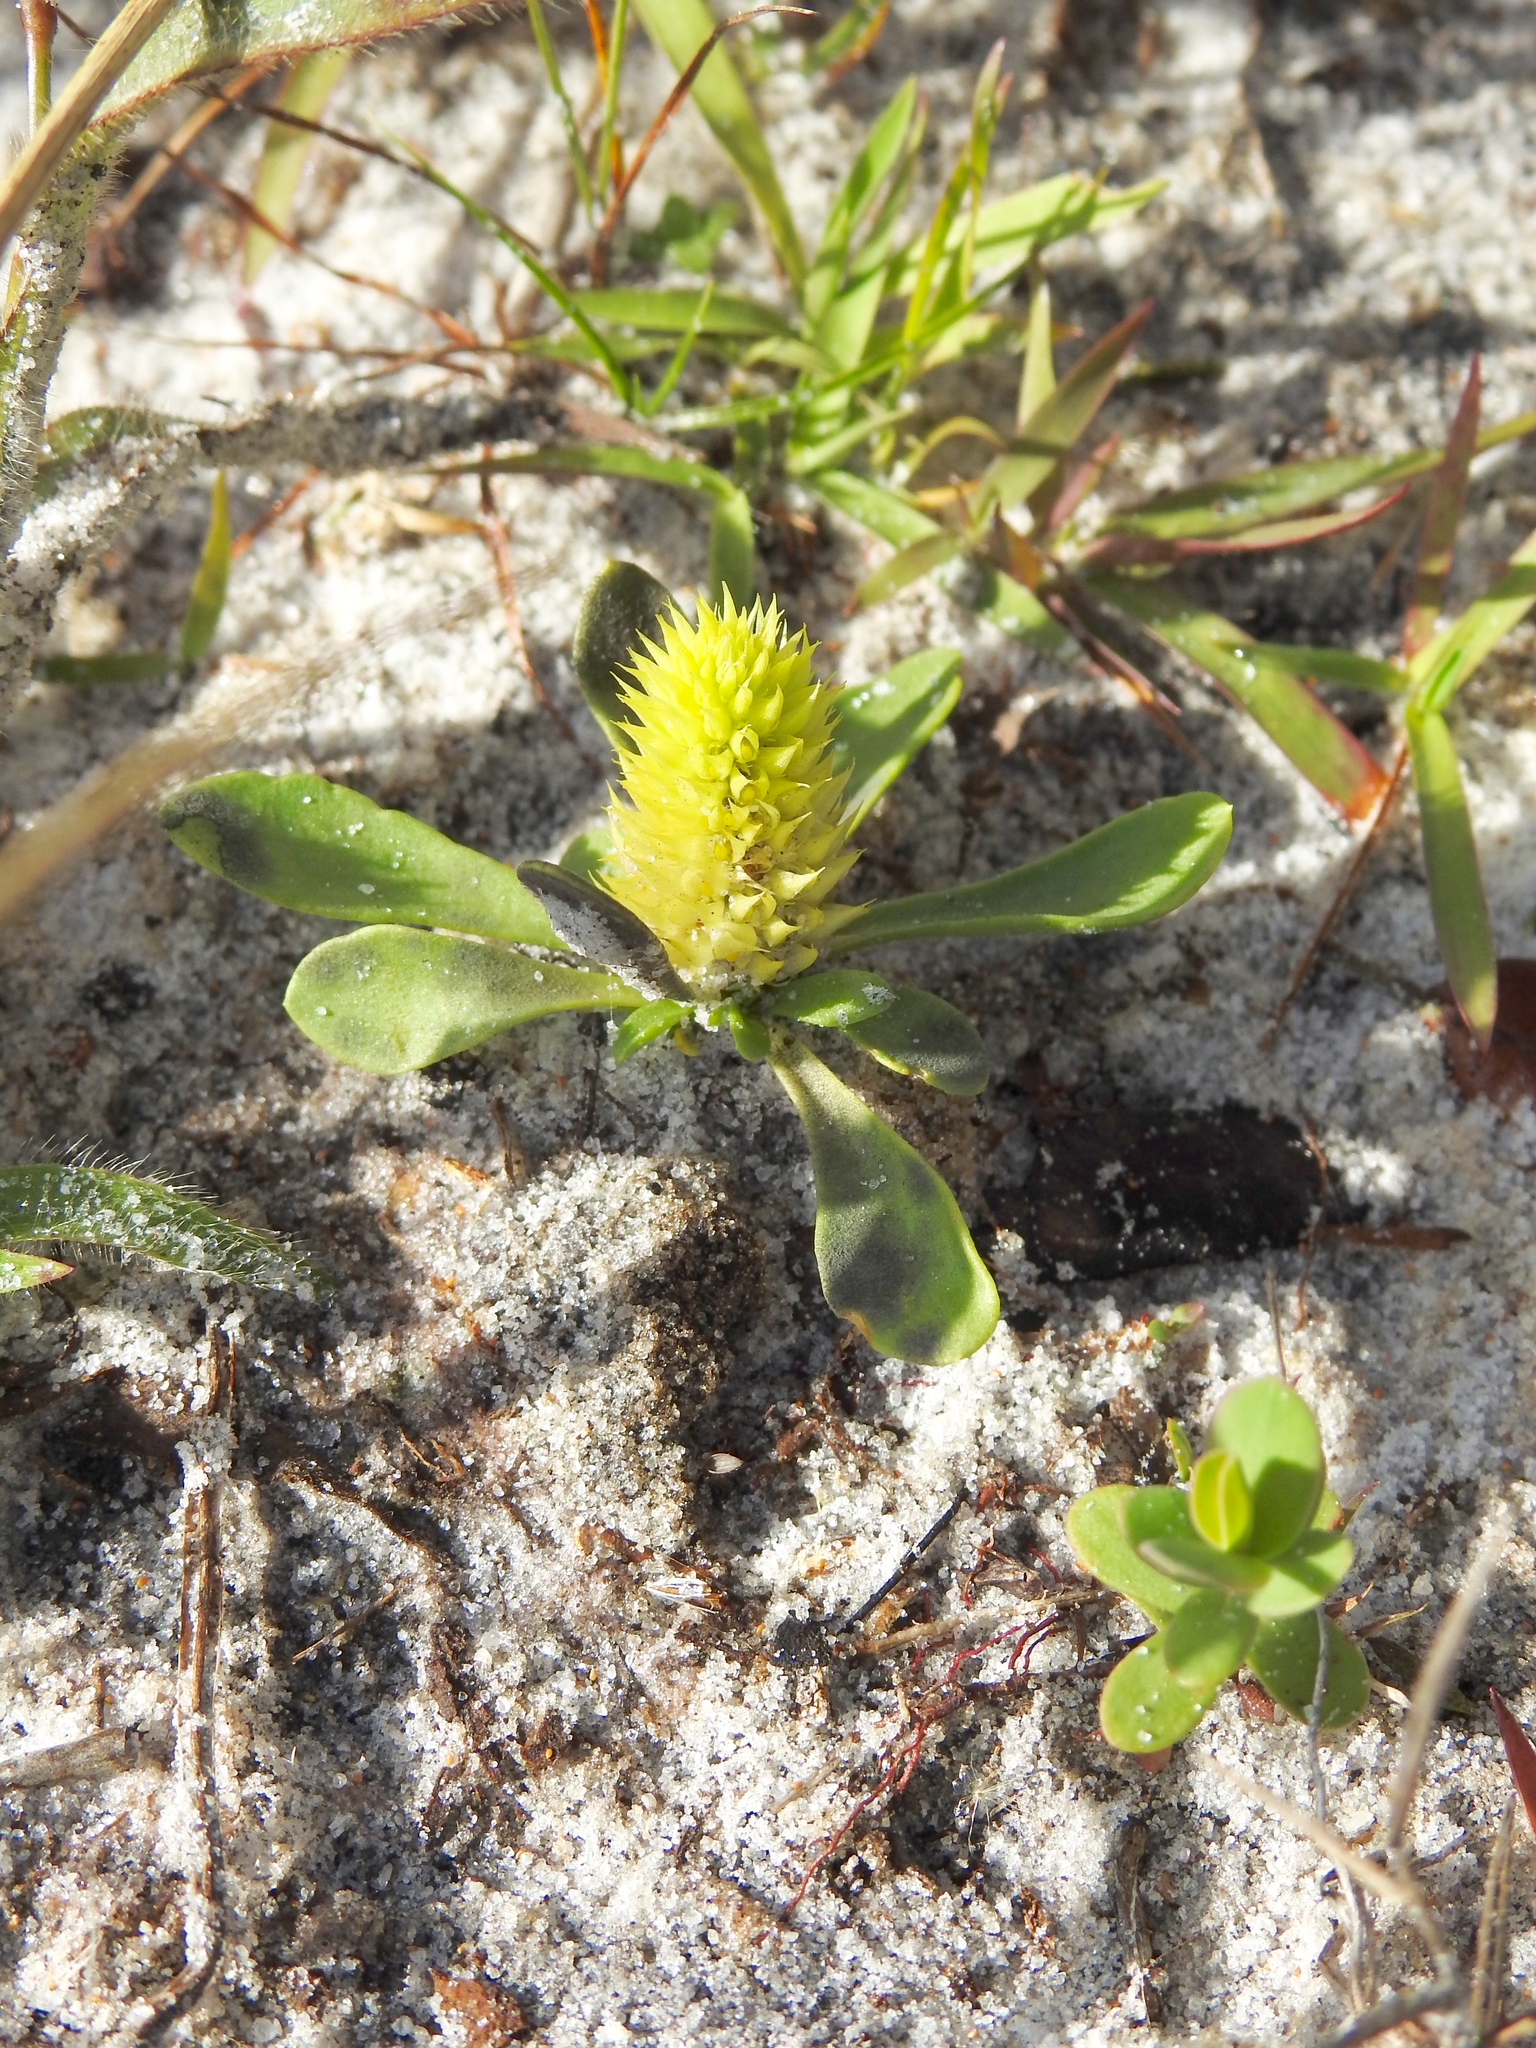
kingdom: Plantae
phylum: Tracheophyta
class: Magnoliopsida
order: Fabales
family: Polygalaceae
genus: Polygala
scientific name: Polygala nana
